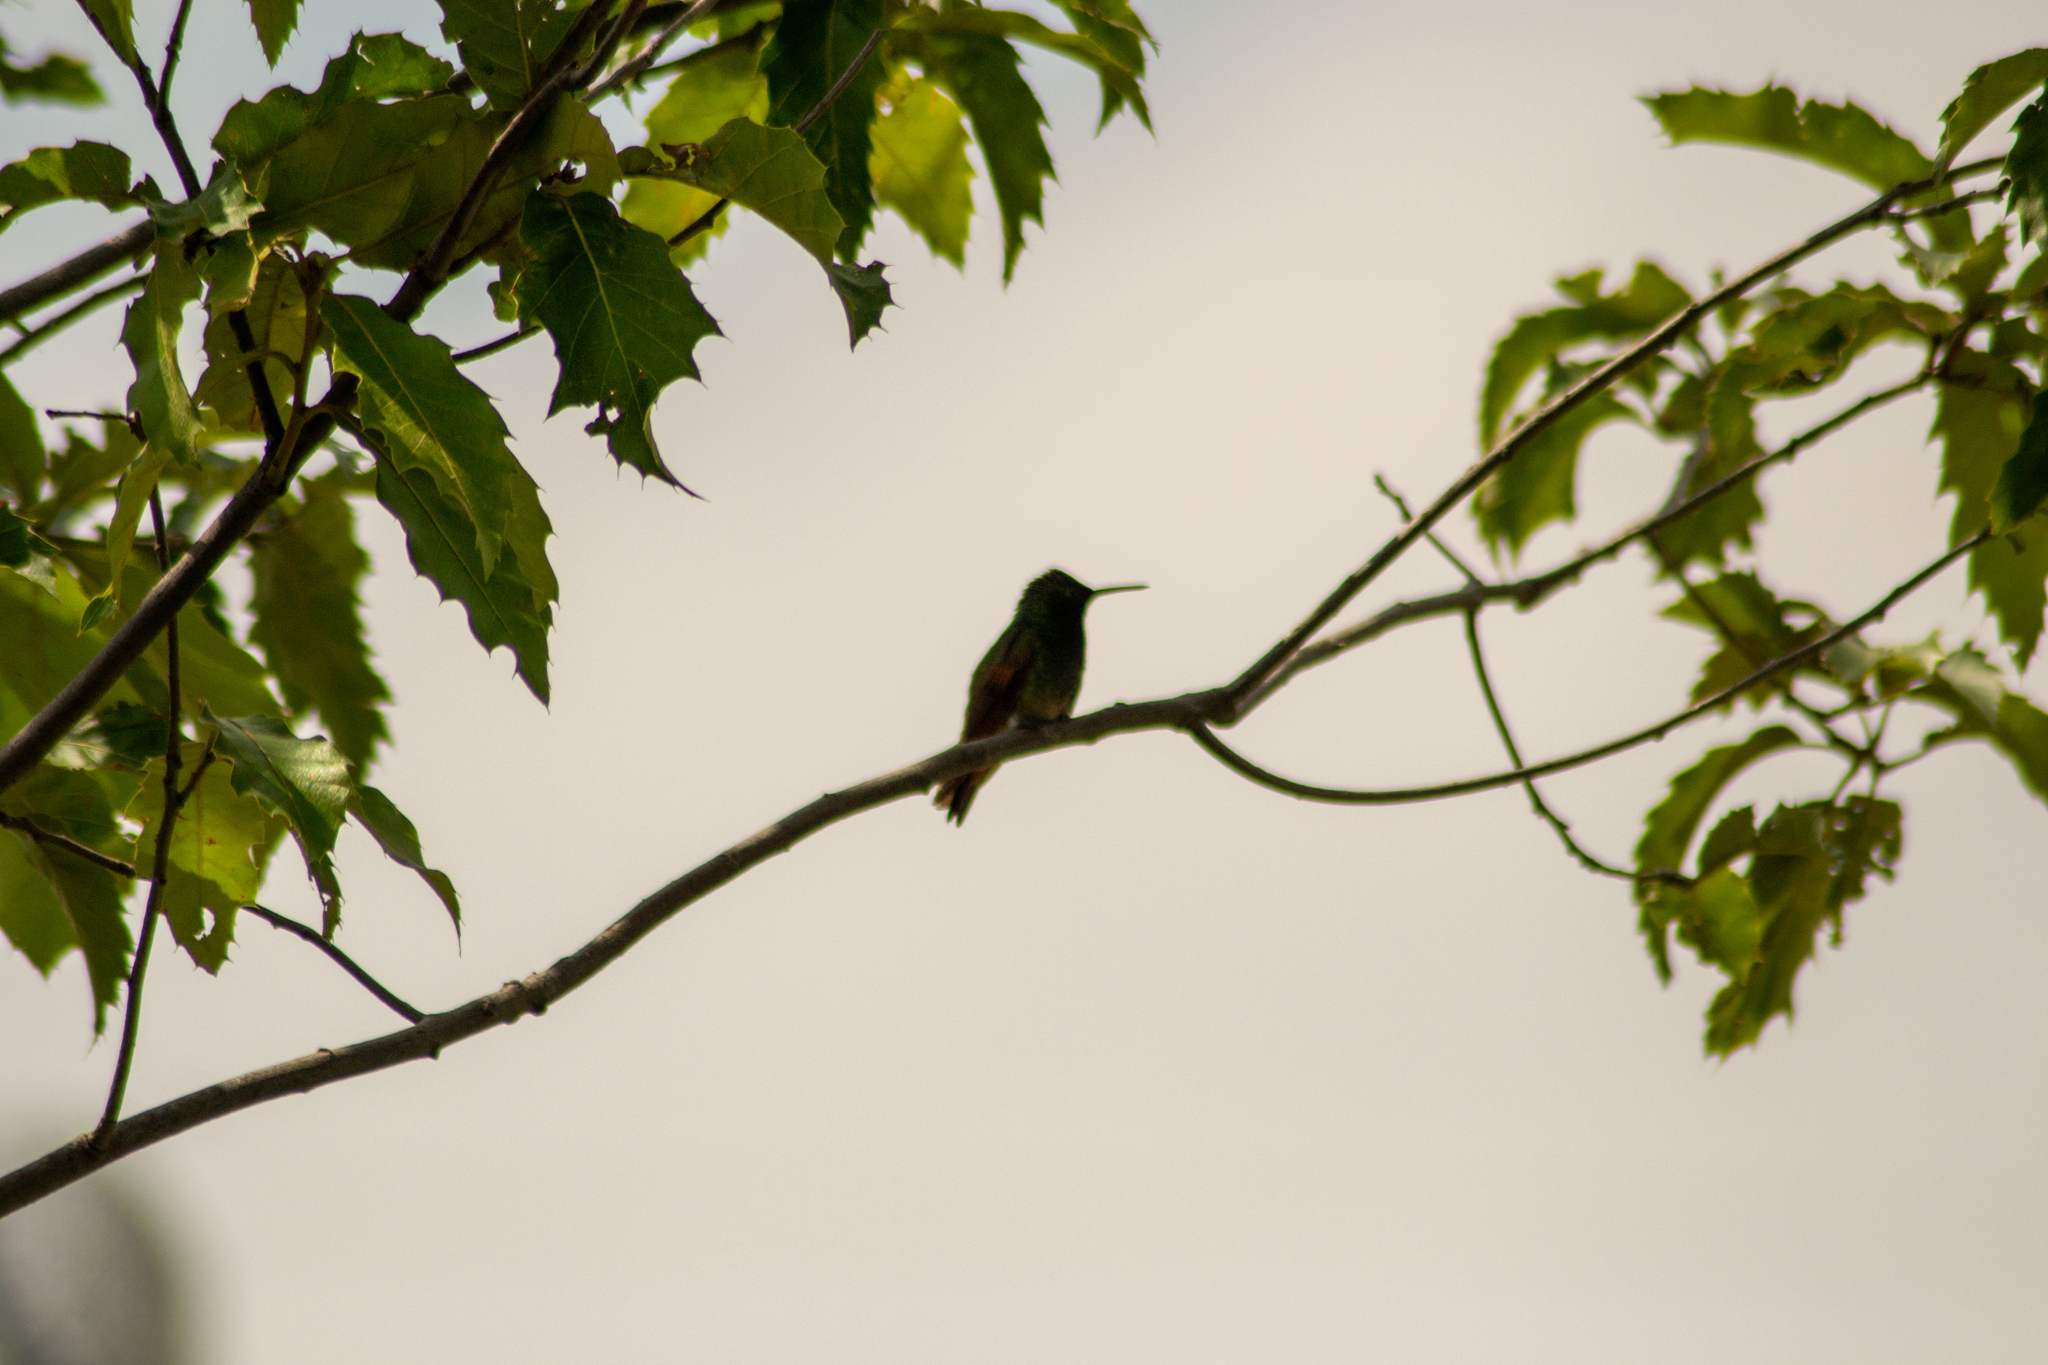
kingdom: Animalia
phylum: Chordata
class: Aves
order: Apodiformes
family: Trochilidae
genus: Saucerottia
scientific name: Saucerottia beryllina
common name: Berylline hummingbird
